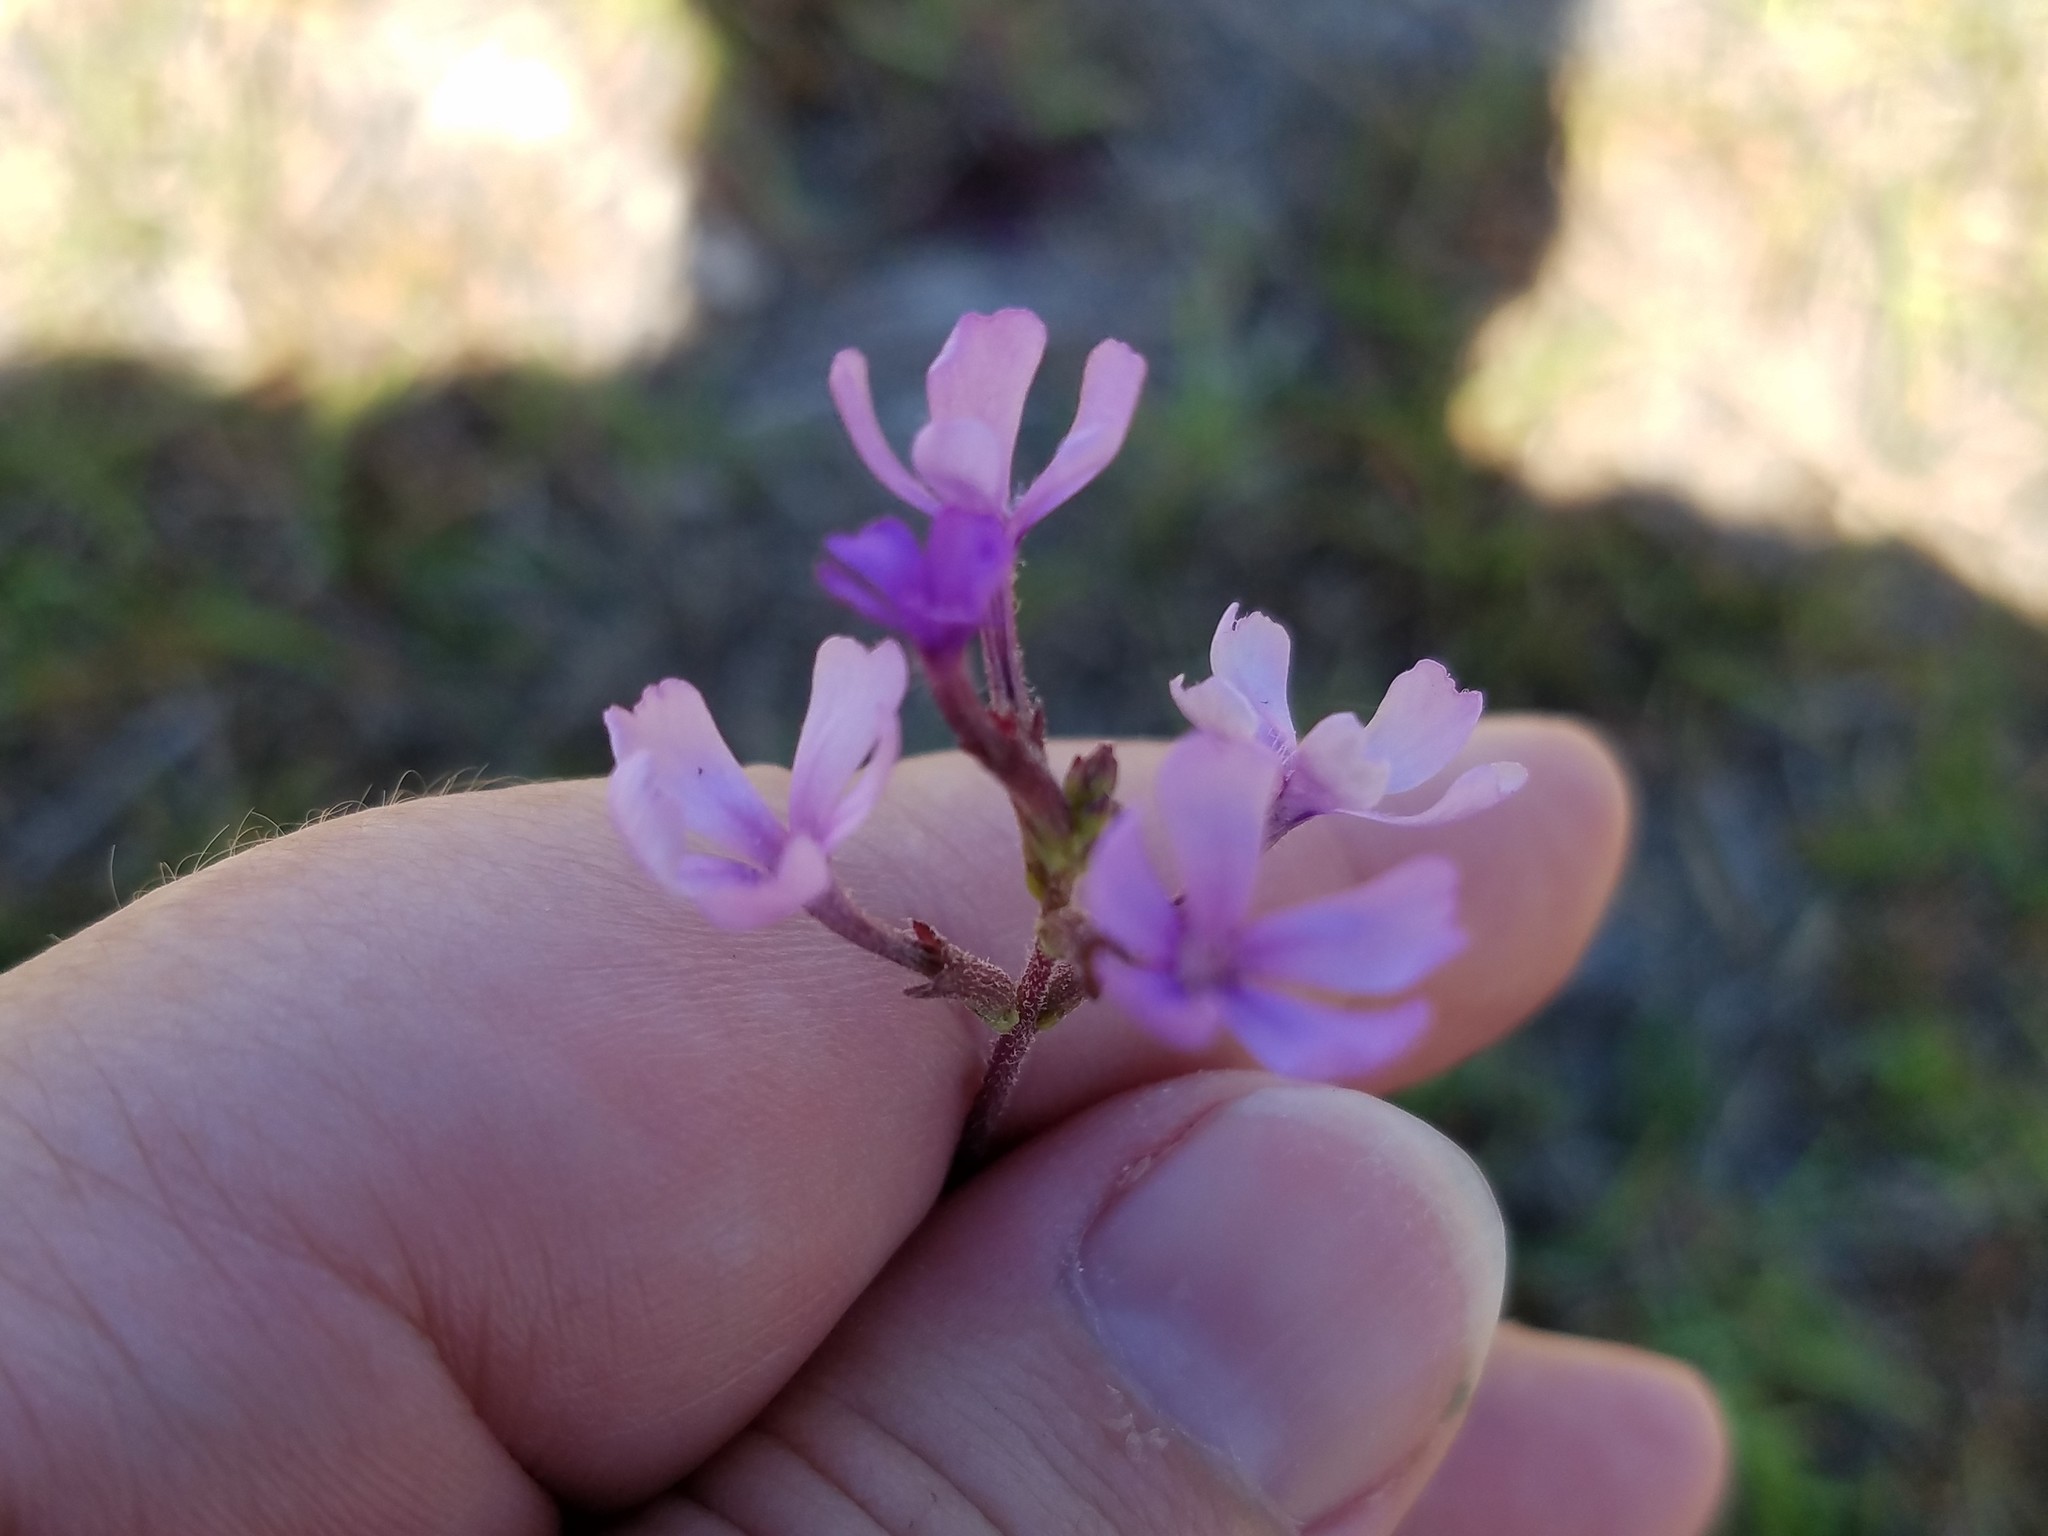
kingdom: Plantae
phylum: Tracheophyta
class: Magnoliopsida
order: Lamiales
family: Orobanchaceae
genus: Buchnera
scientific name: Buchnera floridana
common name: Florida bluehearts
